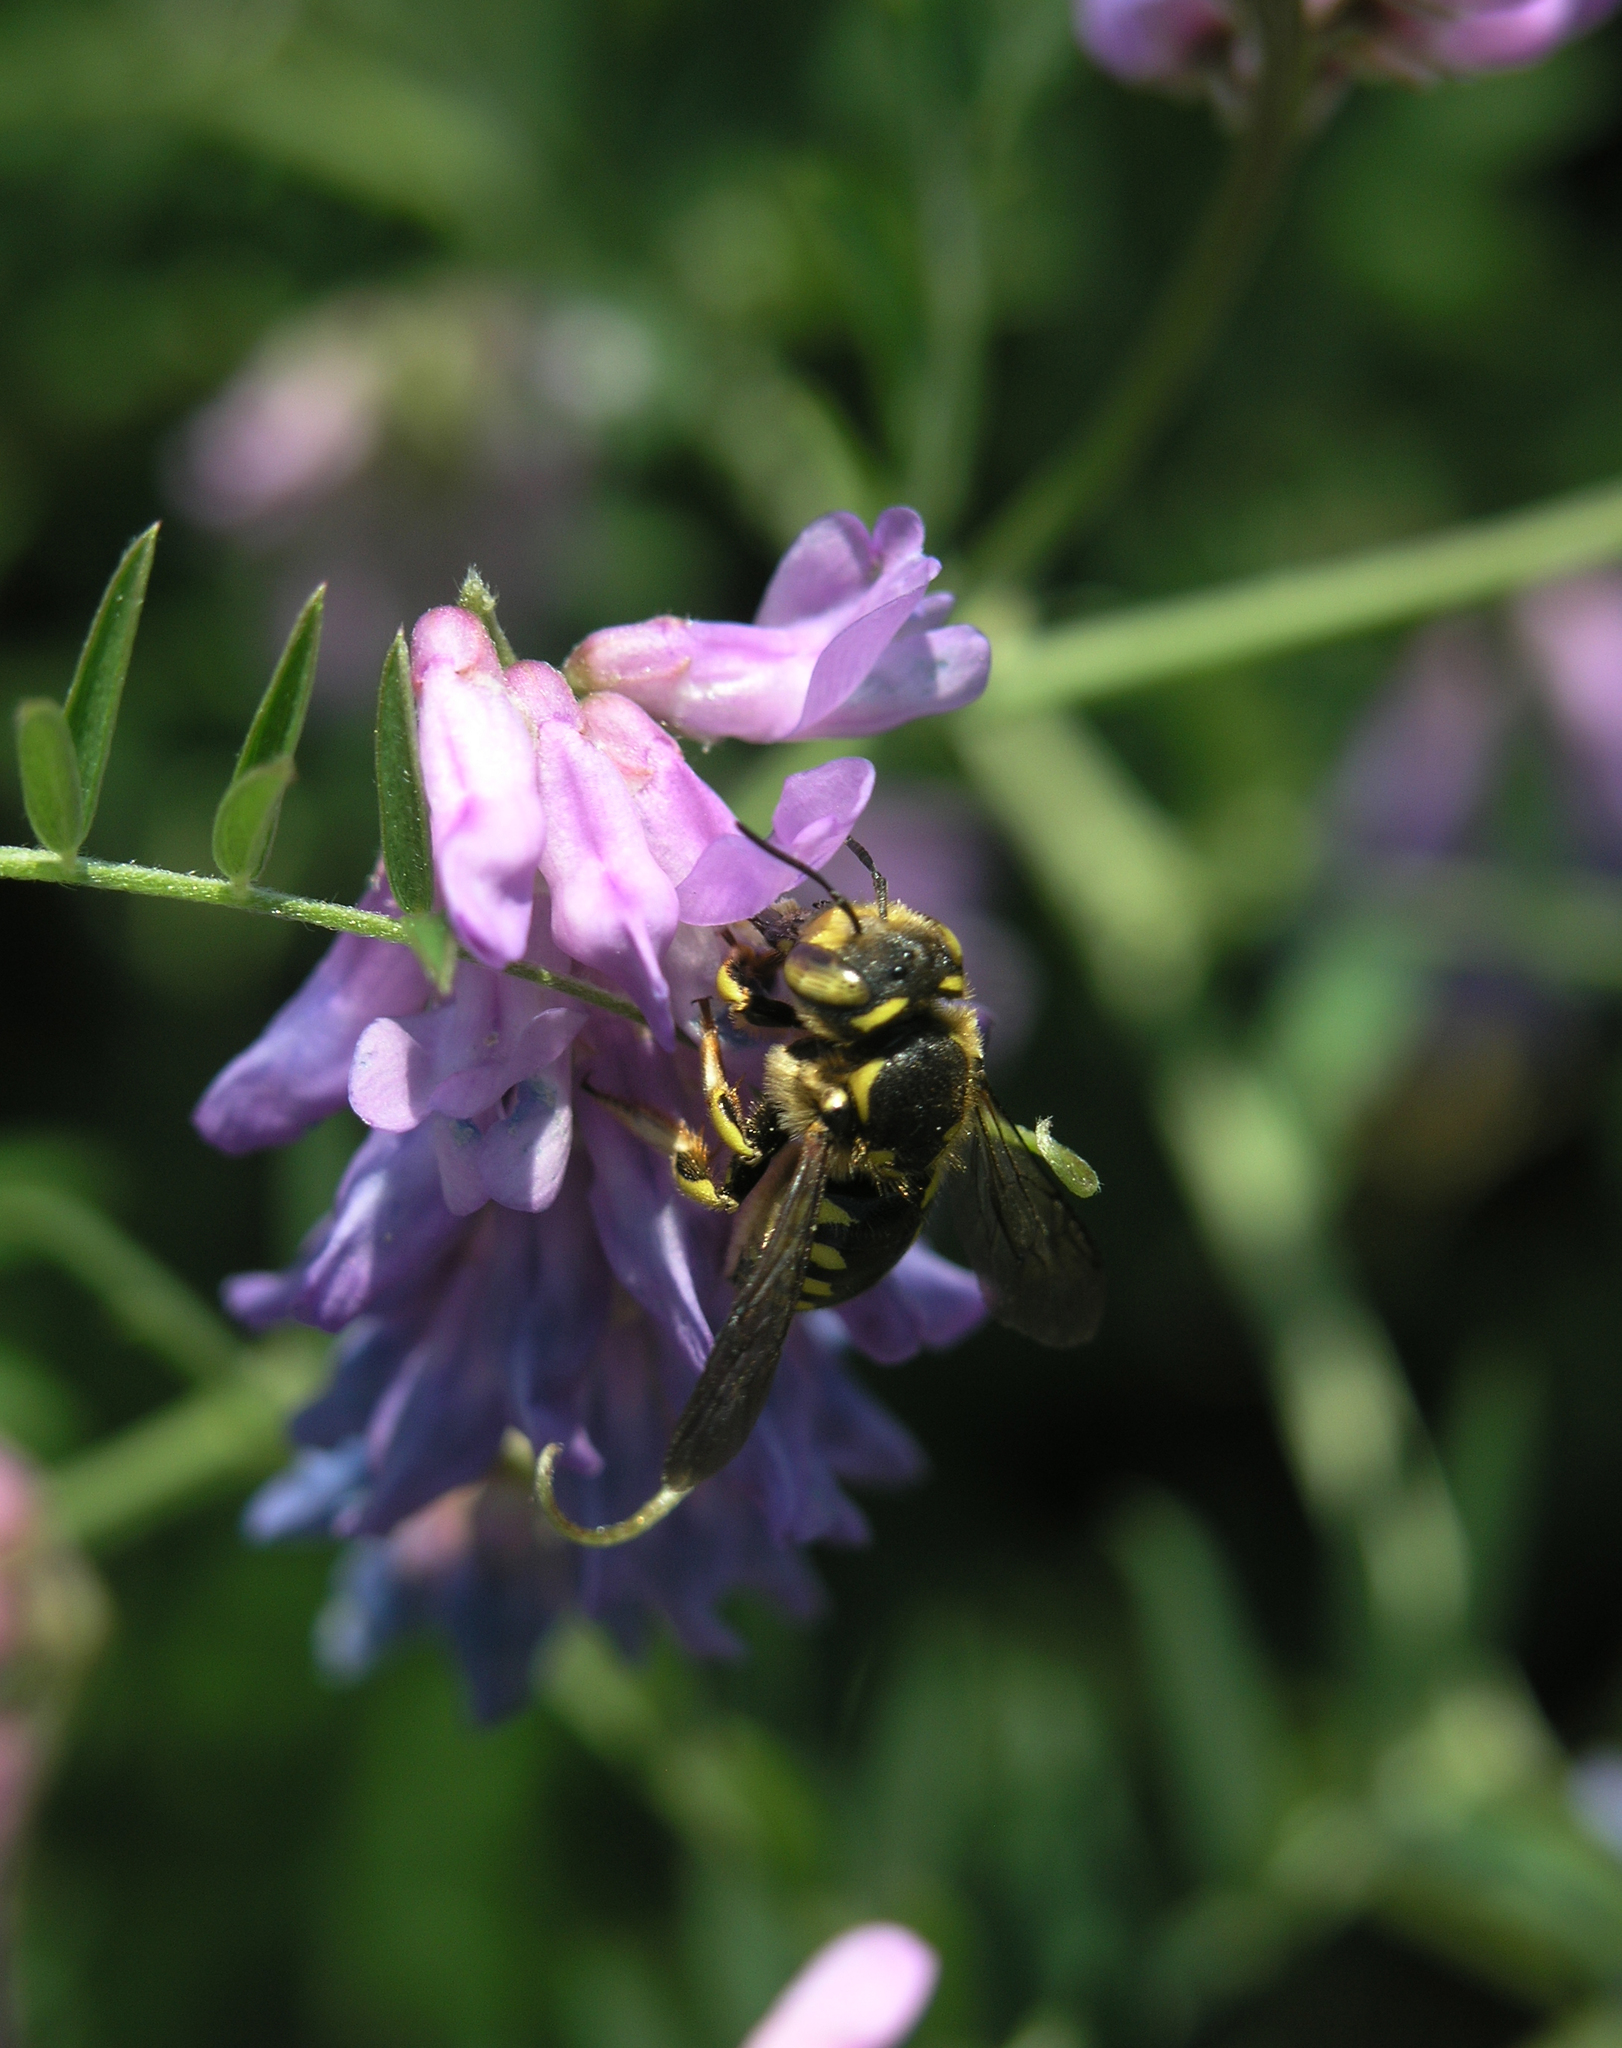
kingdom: Animalia
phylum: Arthropoda
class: Insecta
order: Hymenoptera
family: Megachilidae
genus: Anthidium
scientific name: Anthidium florentinum
